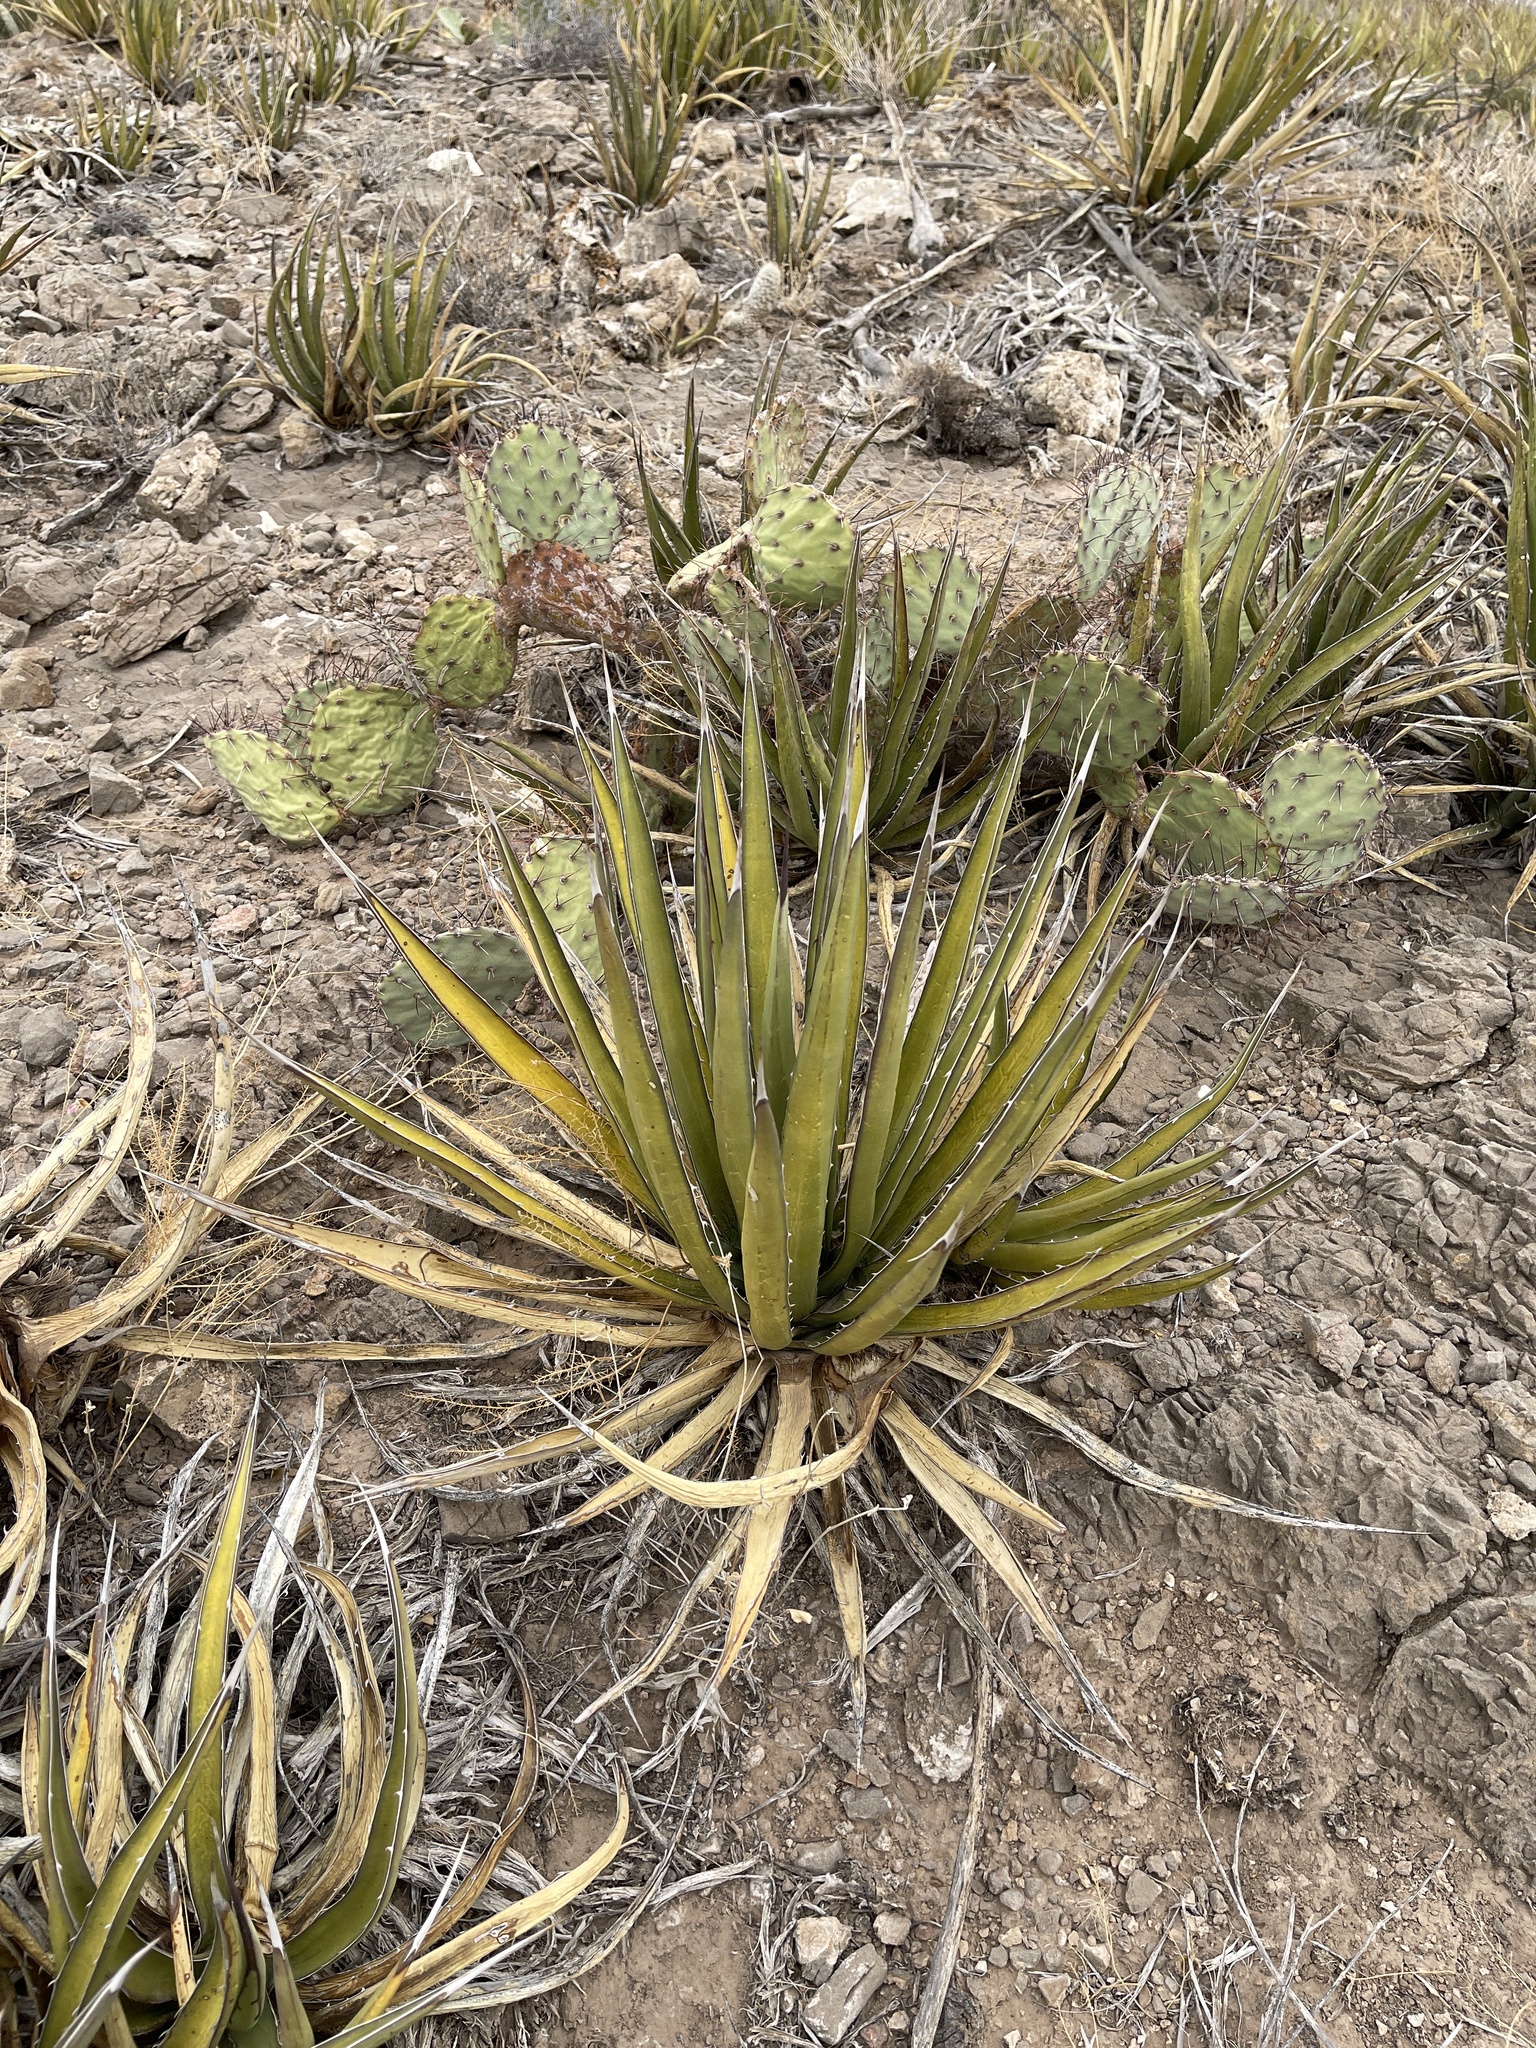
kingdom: Plantae
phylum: Tracheophyta
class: Liliopsida
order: Asparagales
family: Asparagaceae
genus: Agave
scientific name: Agave lechuguilla
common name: Lecheguilla agave
